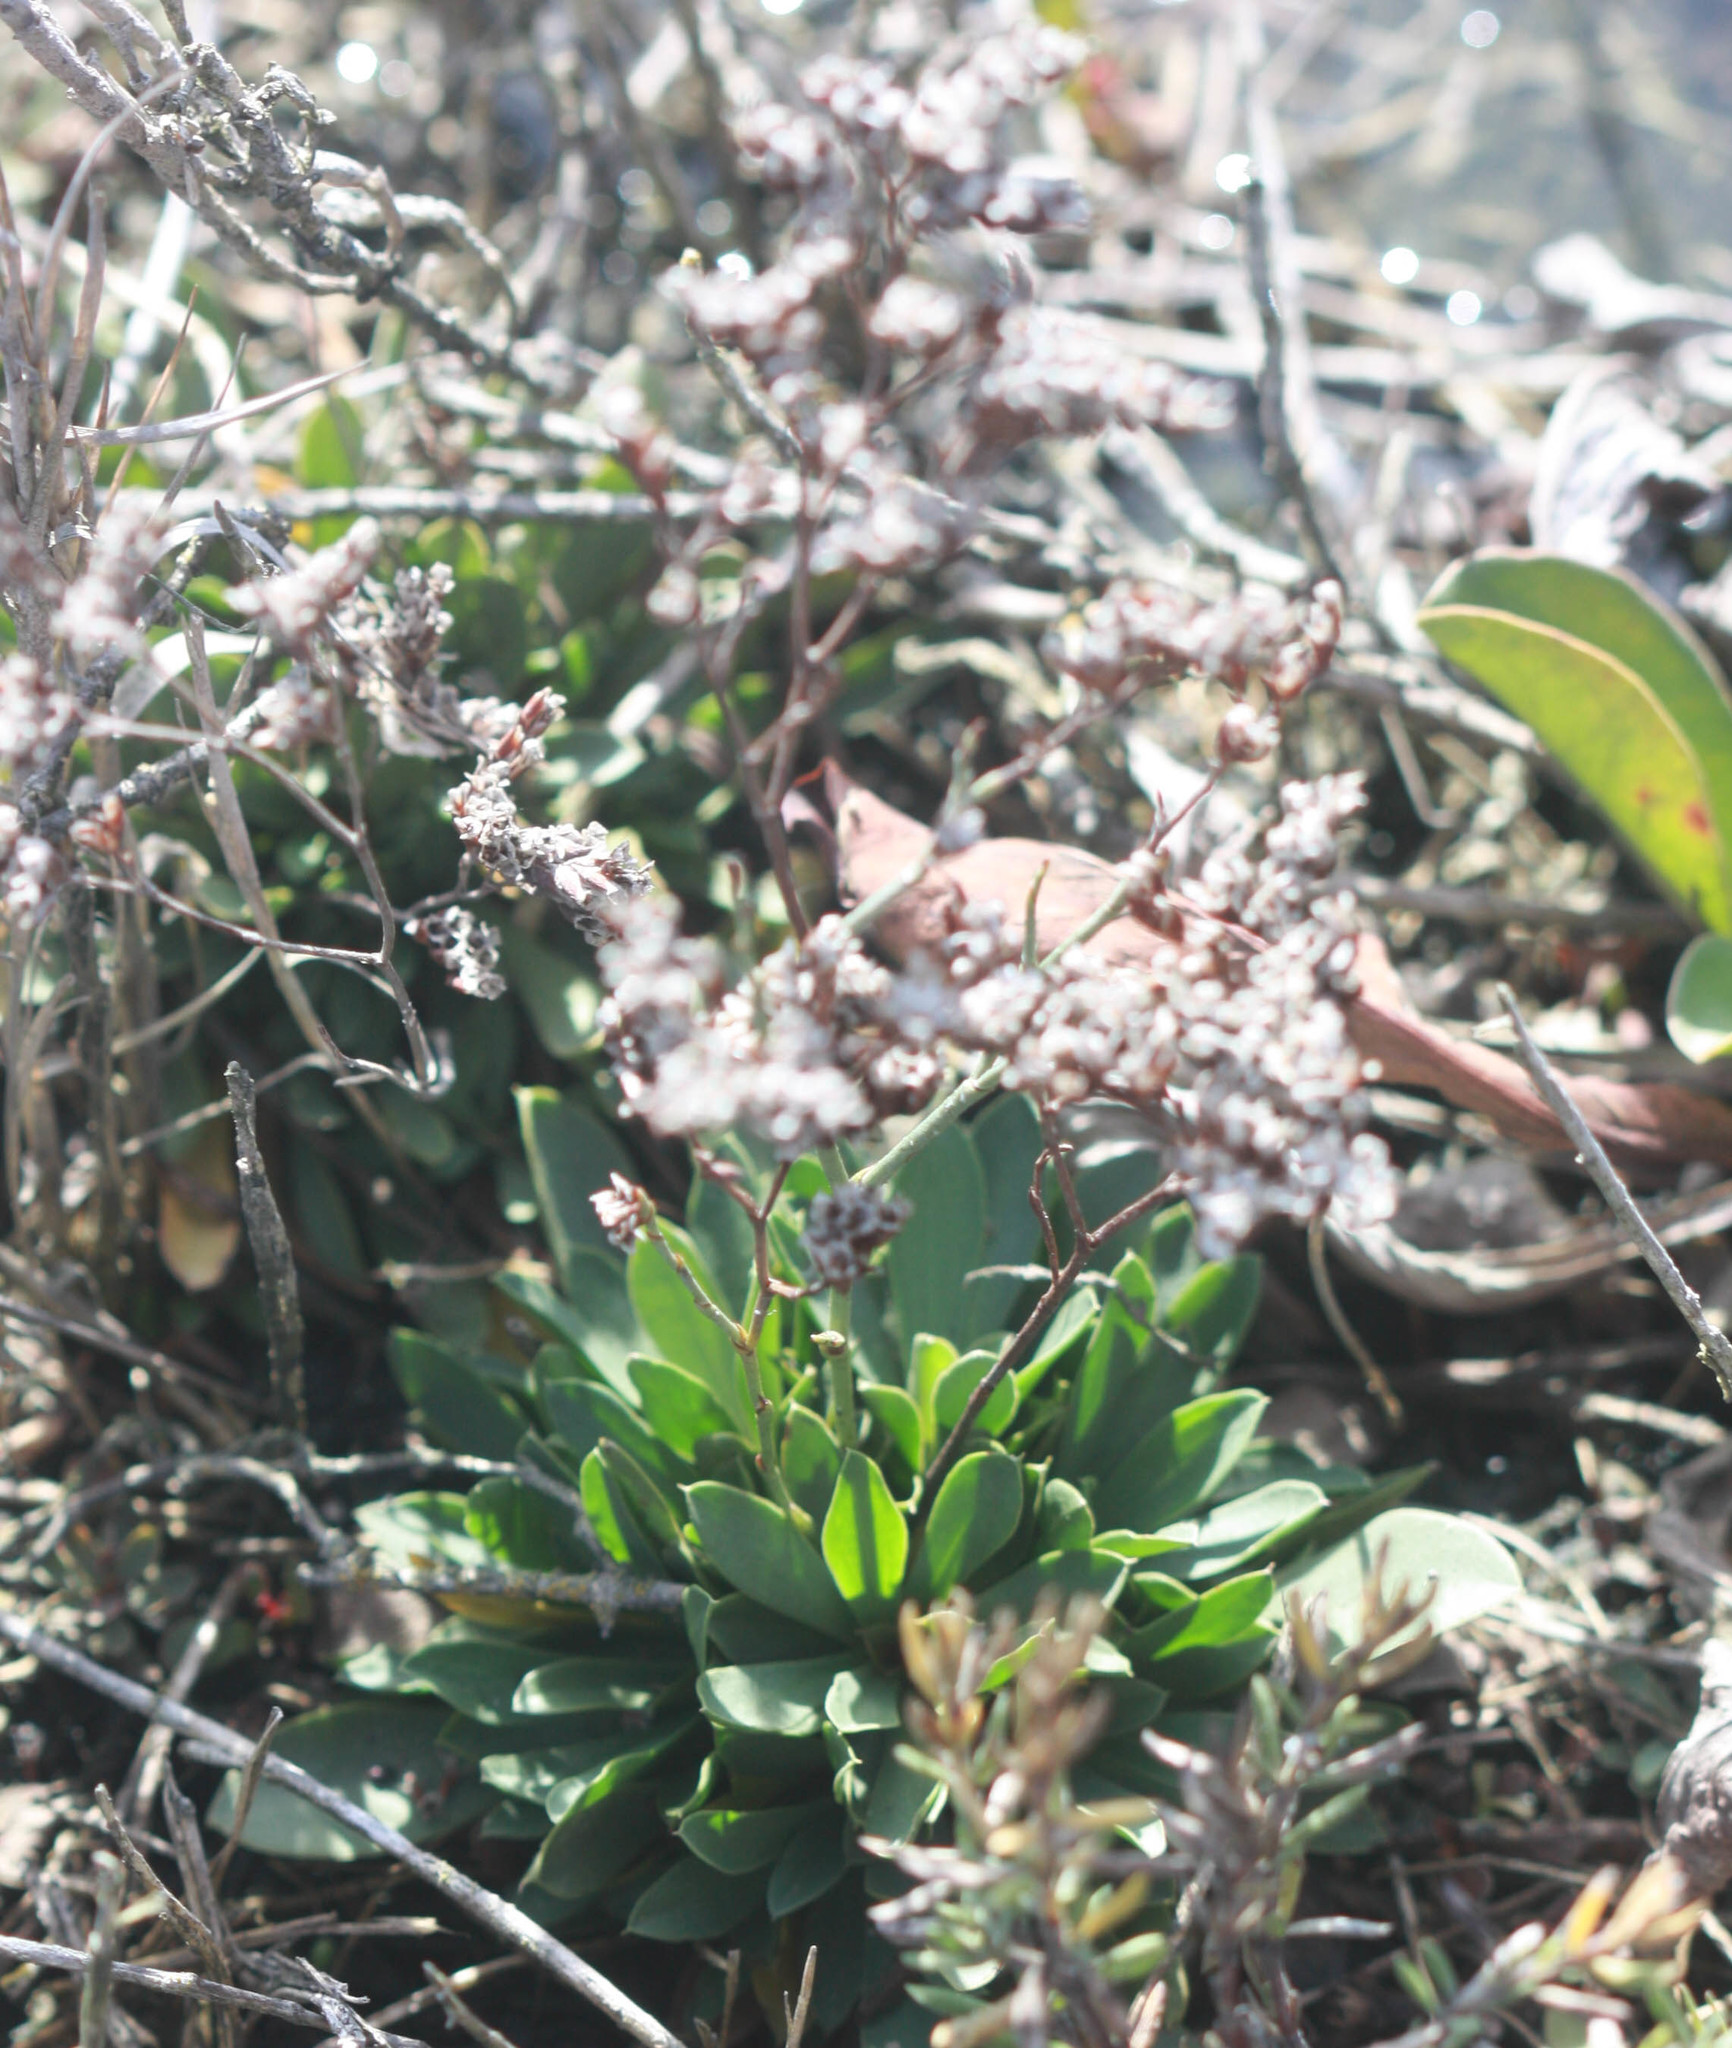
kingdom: Plantae
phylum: Tracheophyta
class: Magnoliopsida
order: Caryophyllales
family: Plumbaginaceae
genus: Limonium
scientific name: Limonium ramosissimum
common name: Algerian sea lavender
